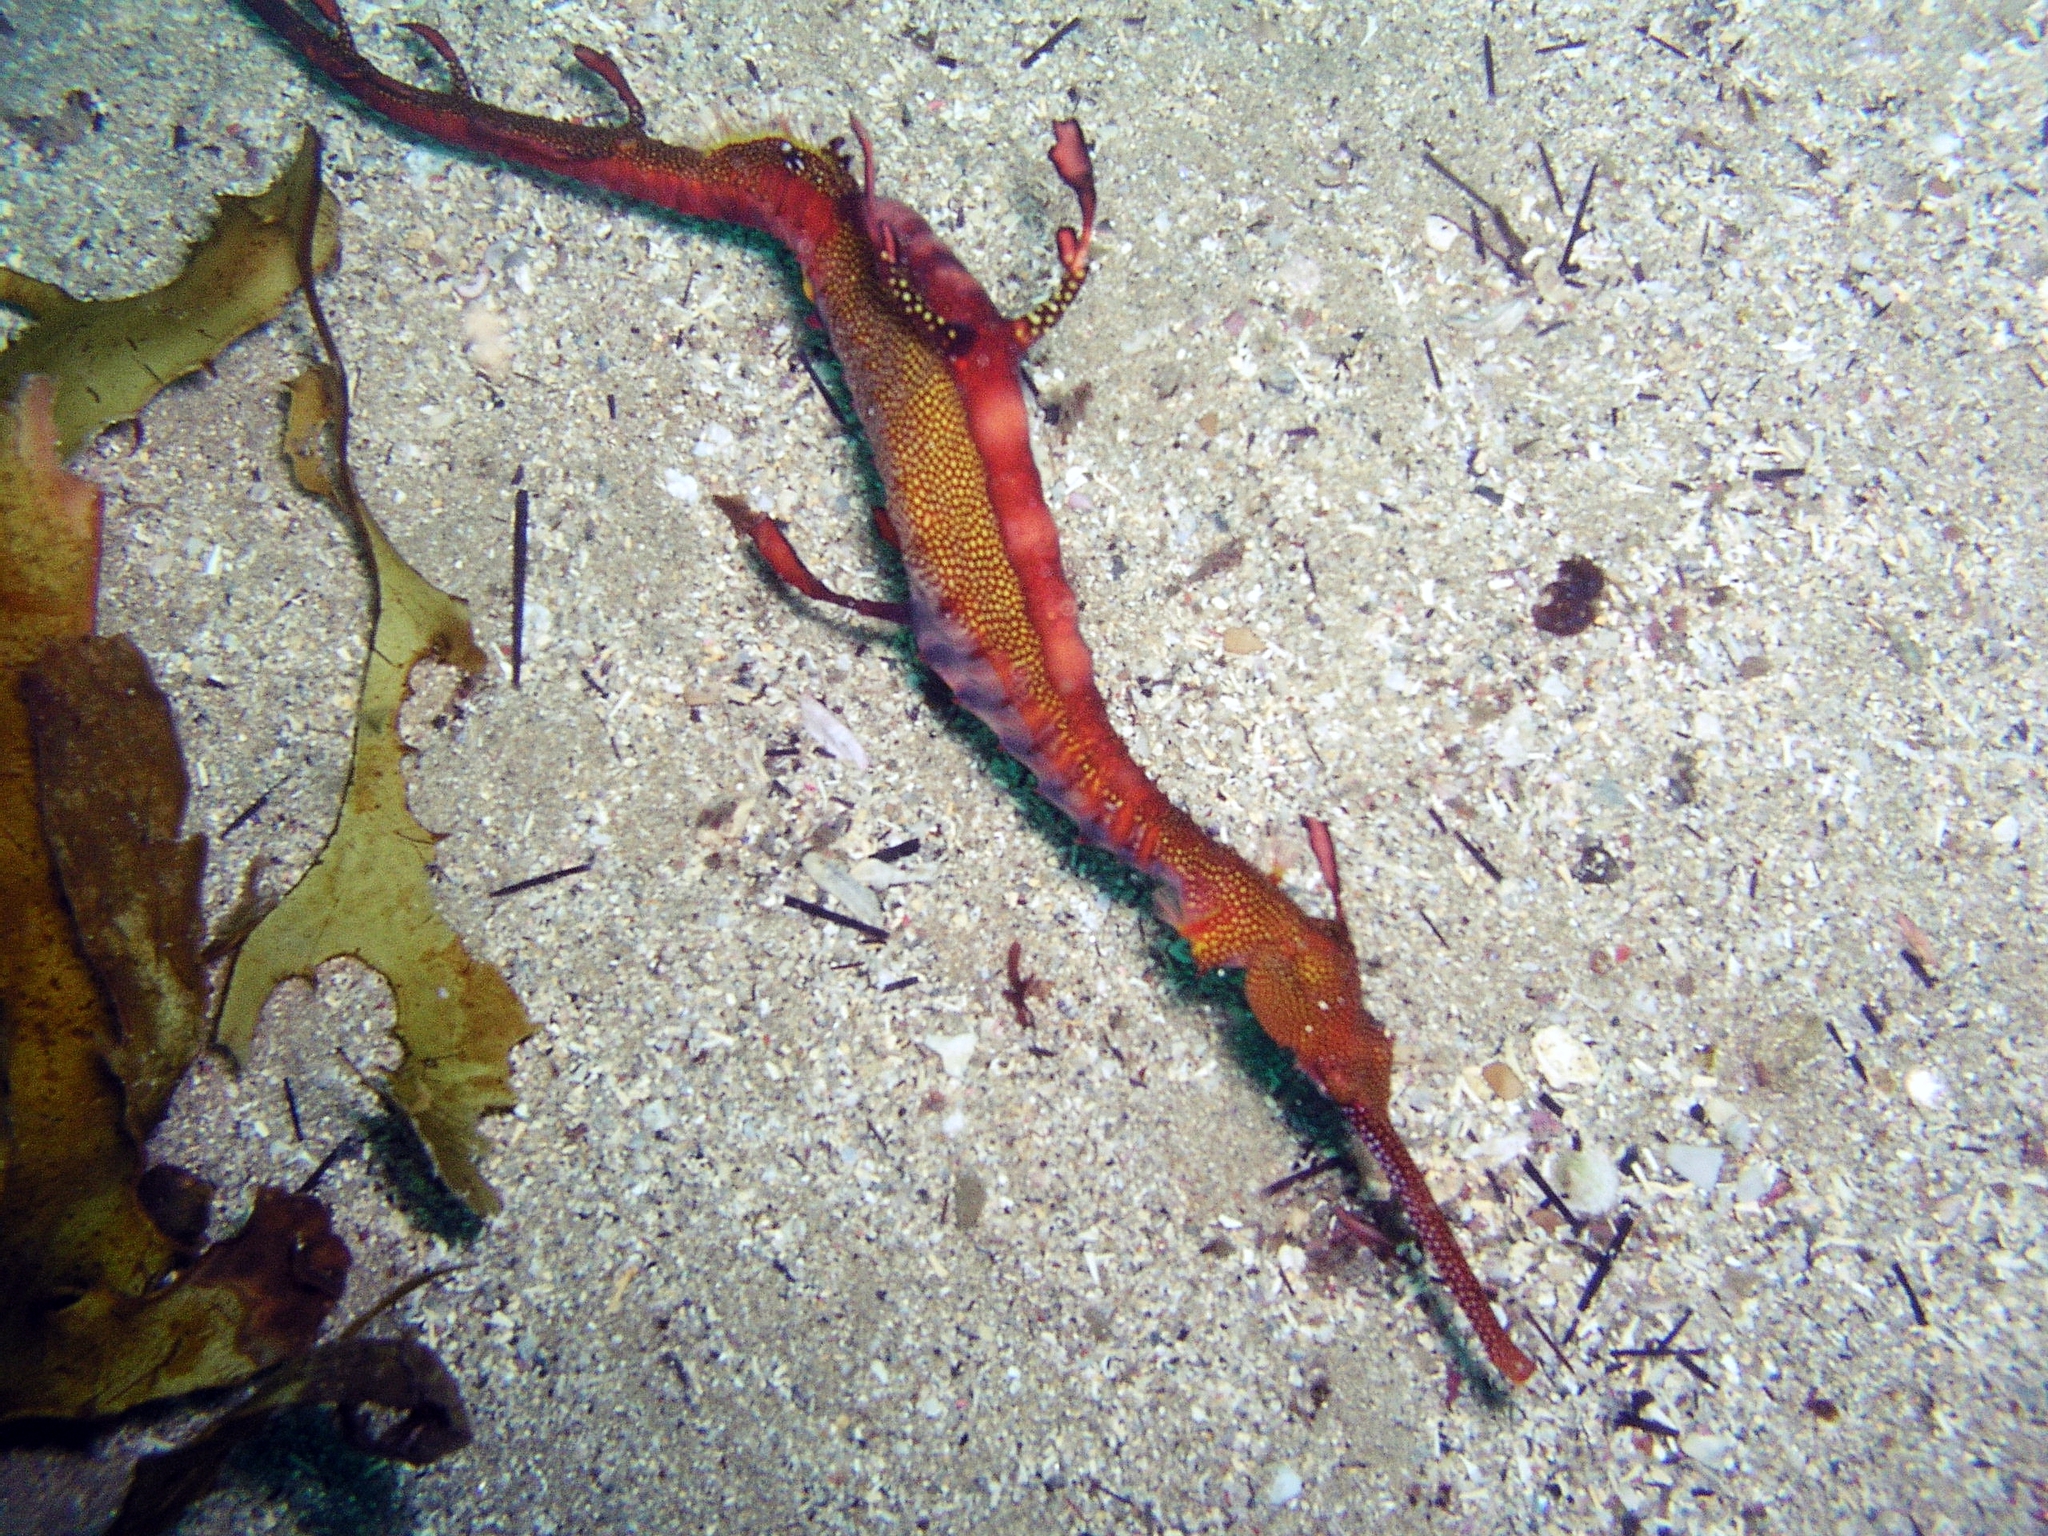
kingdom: Animalia
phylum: Chordata
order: Syngnathiformes
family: Syngnathidae
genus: Phyllopteryx
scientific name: Phyllopteryx taeniolatus
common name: Common seadragon
